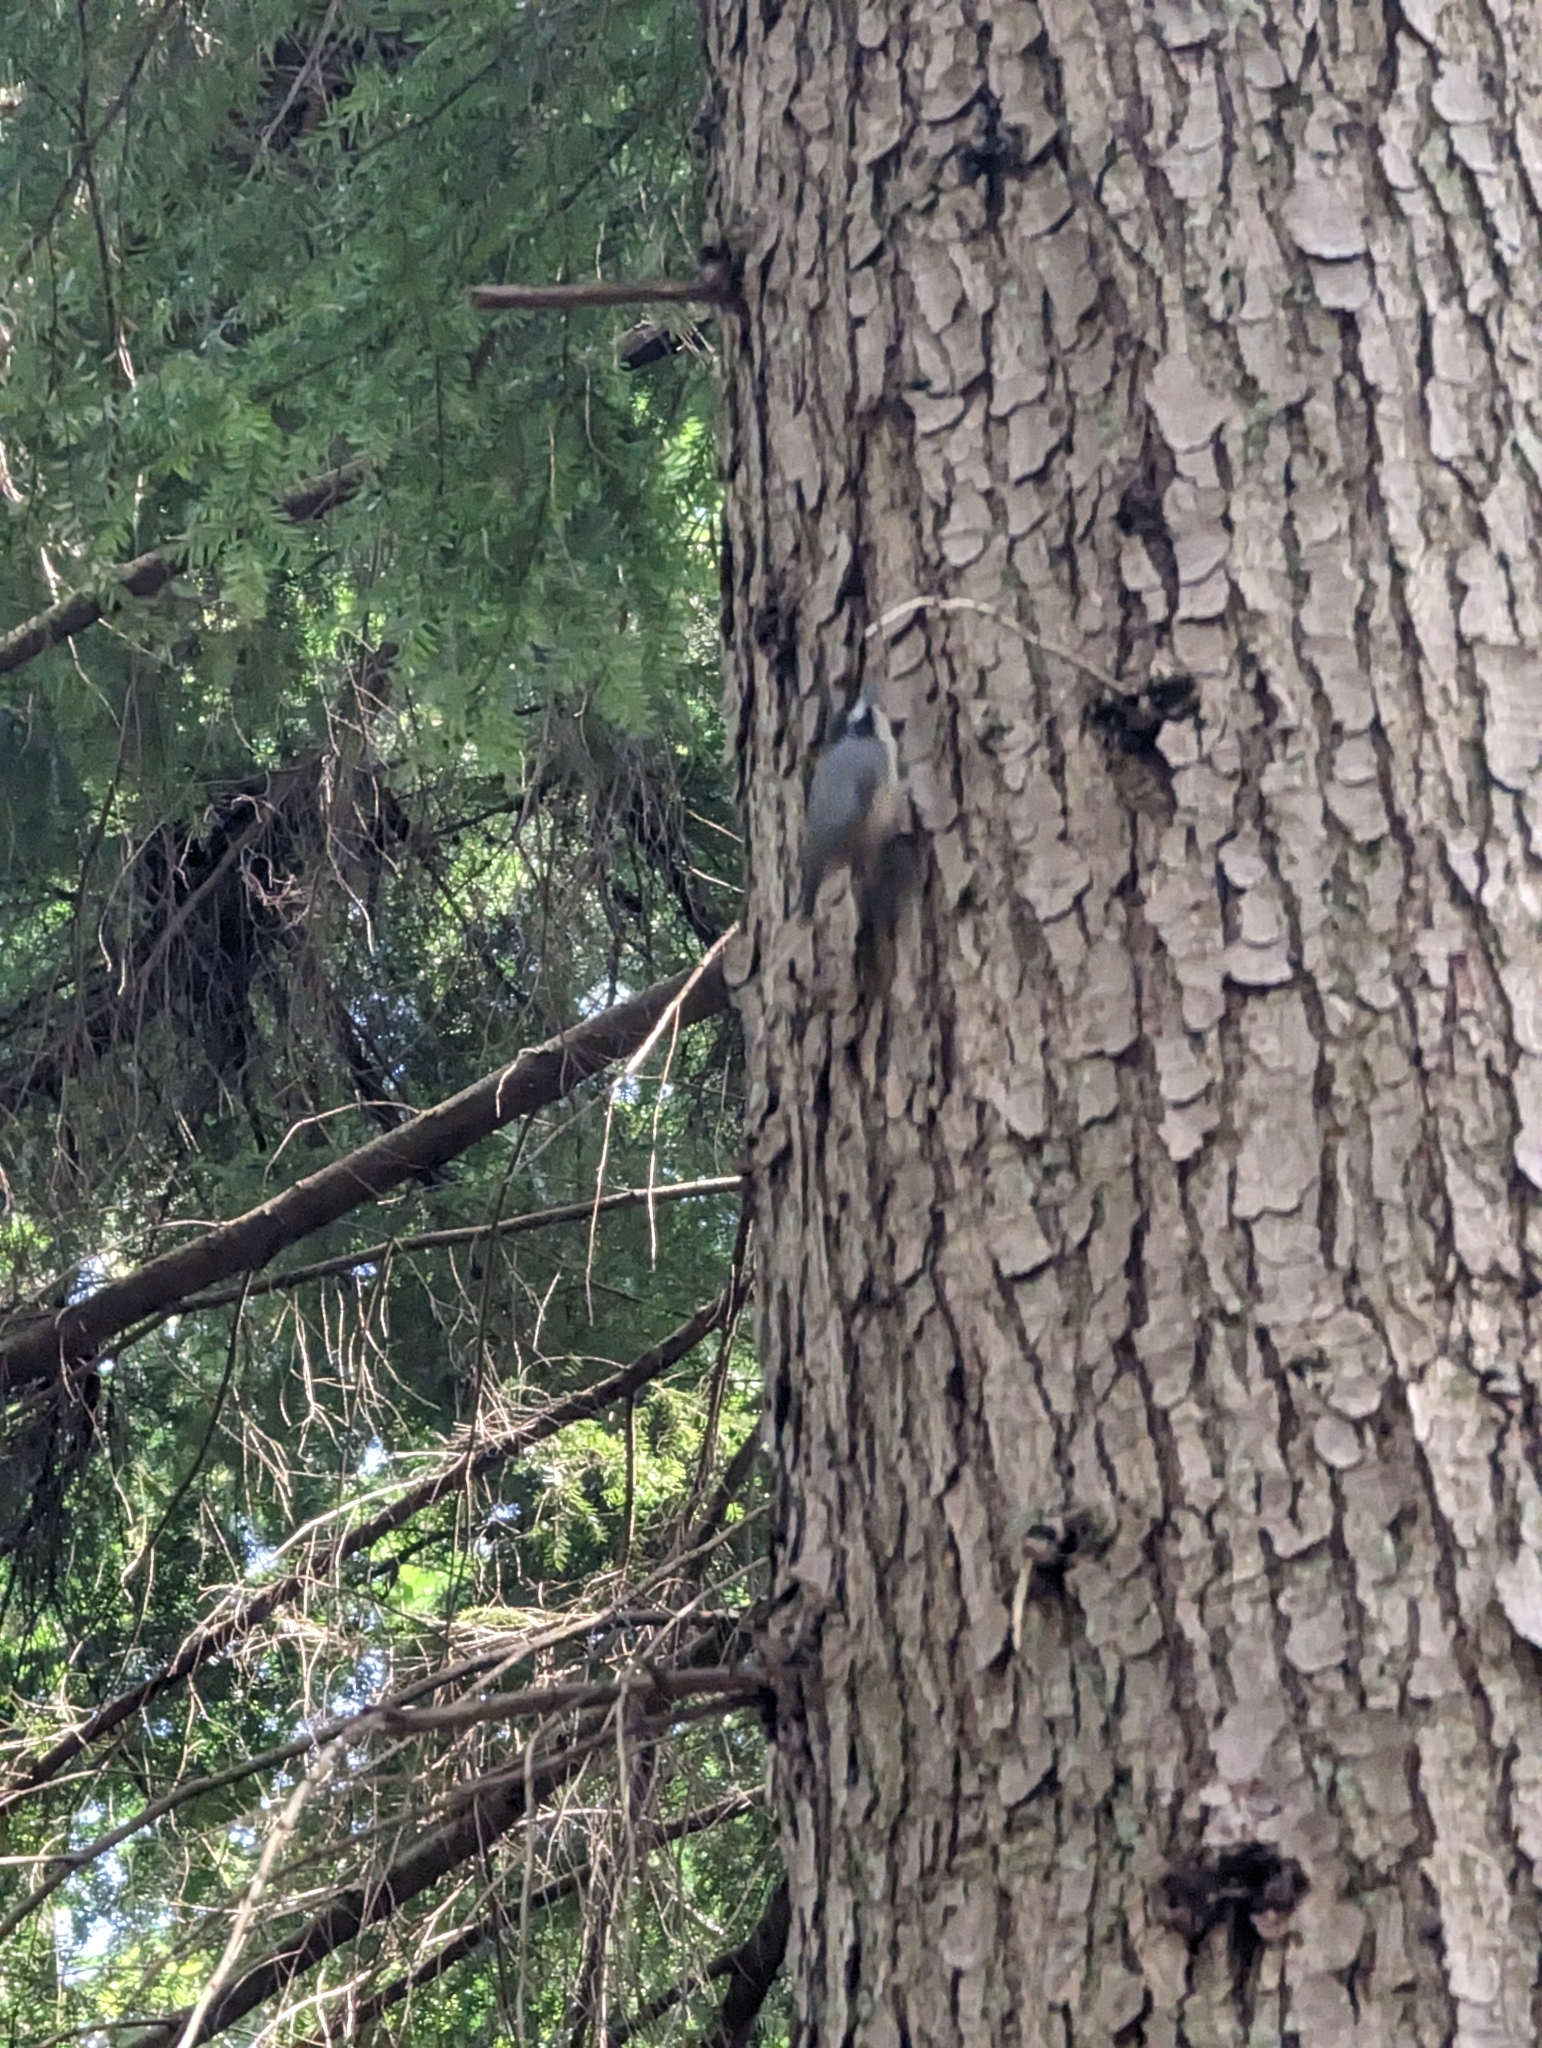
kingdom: Animalia
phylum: Chordata
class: Aves
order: Passeriformes
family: Sittidae
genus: Sitta
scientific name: Sitta canadensis
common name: Red-breasted nuthatch
